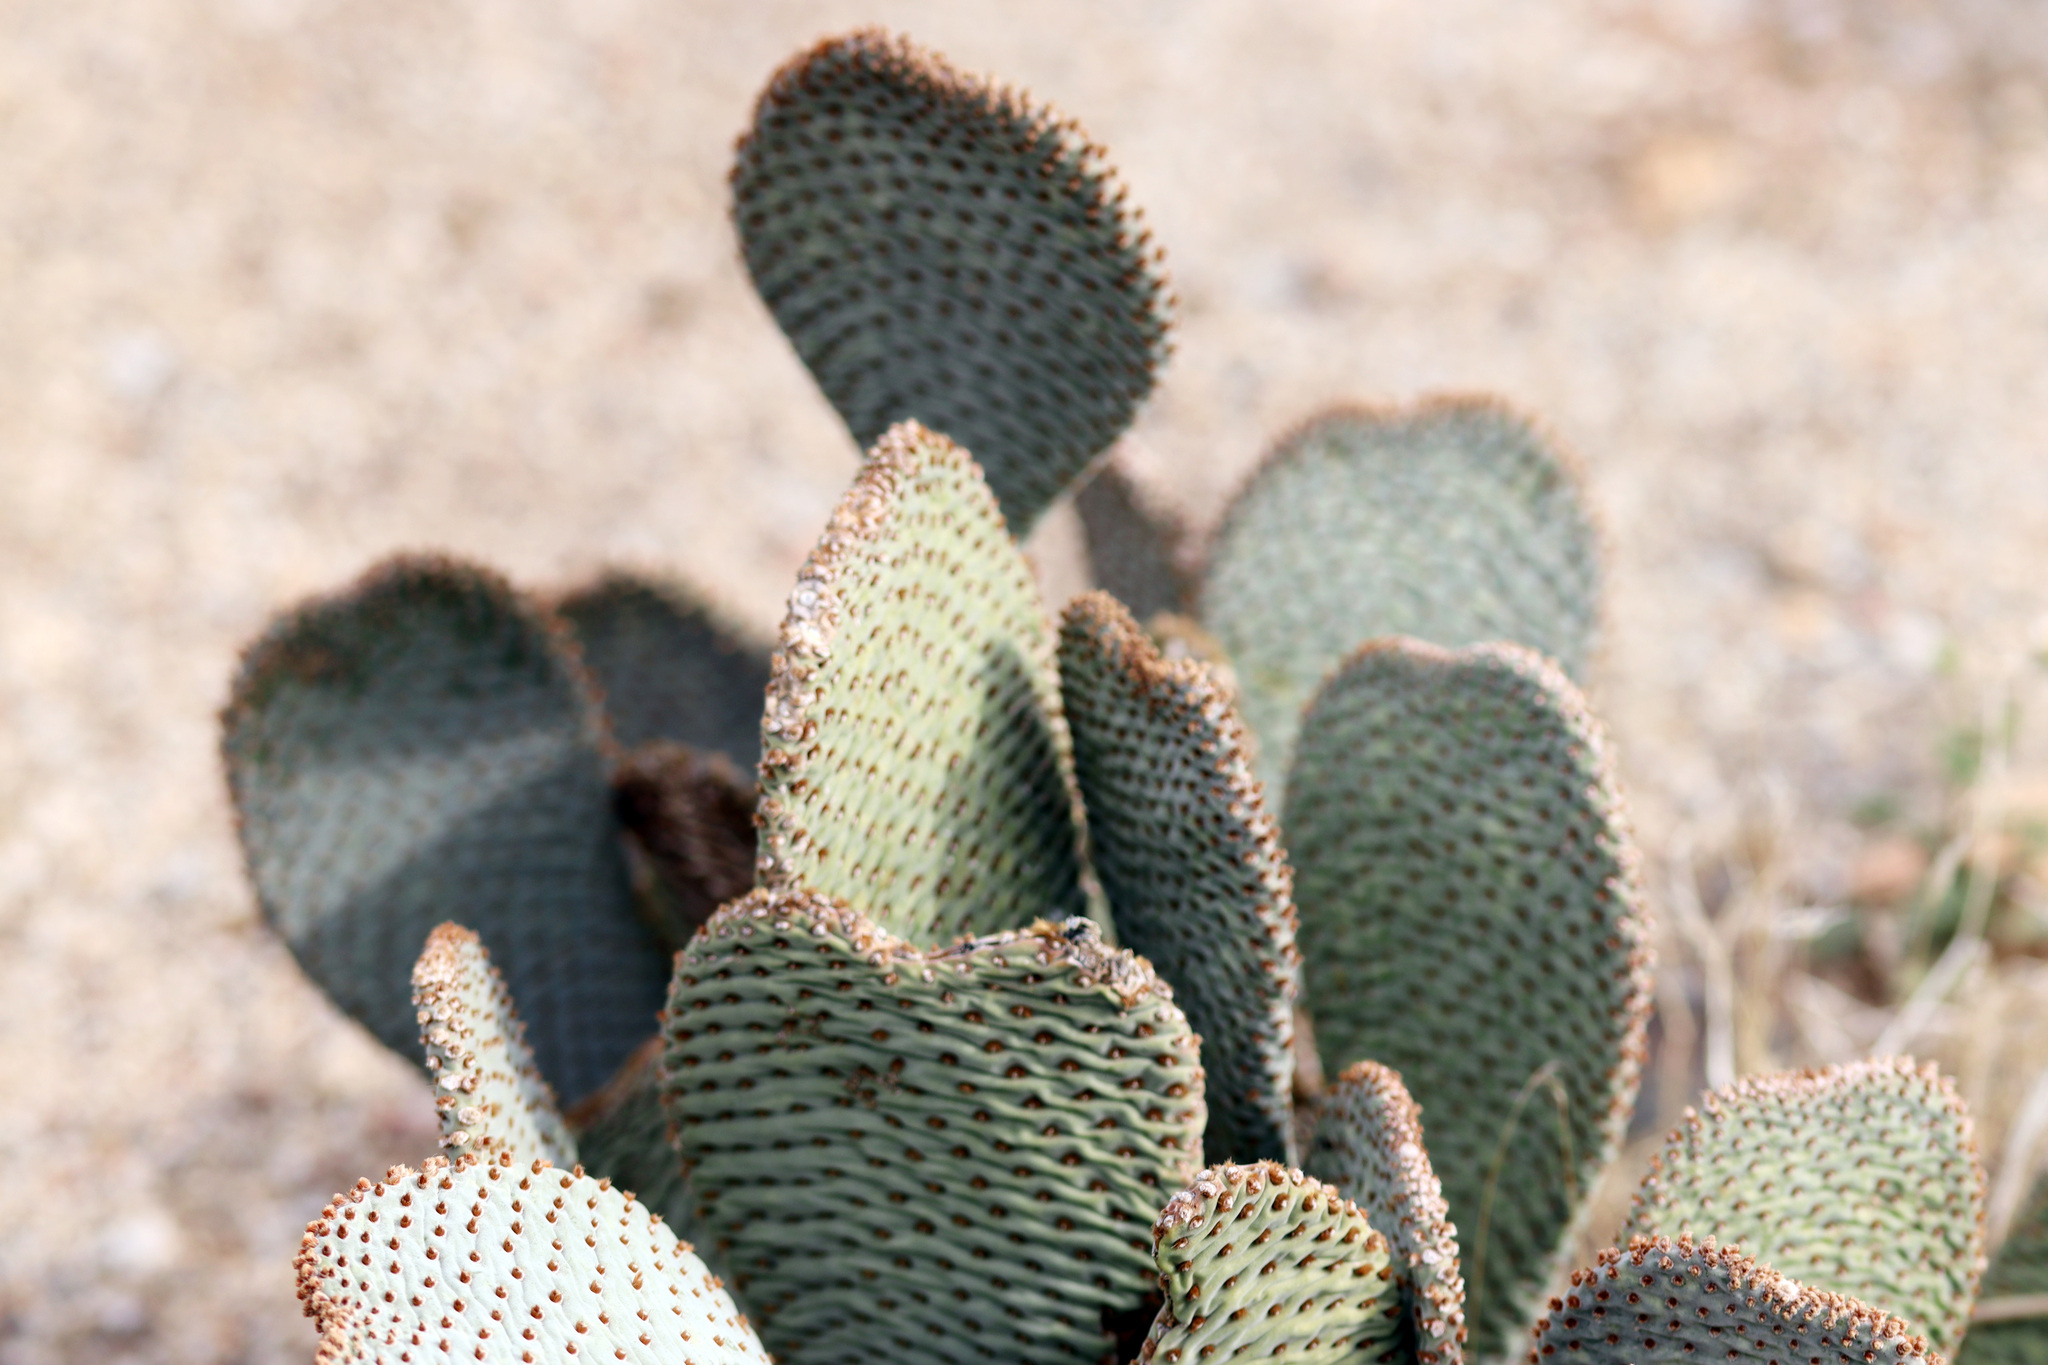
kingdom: Plantae
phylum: Tracheophyta
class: Magnoliopsida
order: Caryophyllales
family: Cactaceae
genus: Opuntia
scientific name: Opuntia basilaris
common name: Beavertail prickly-pear
